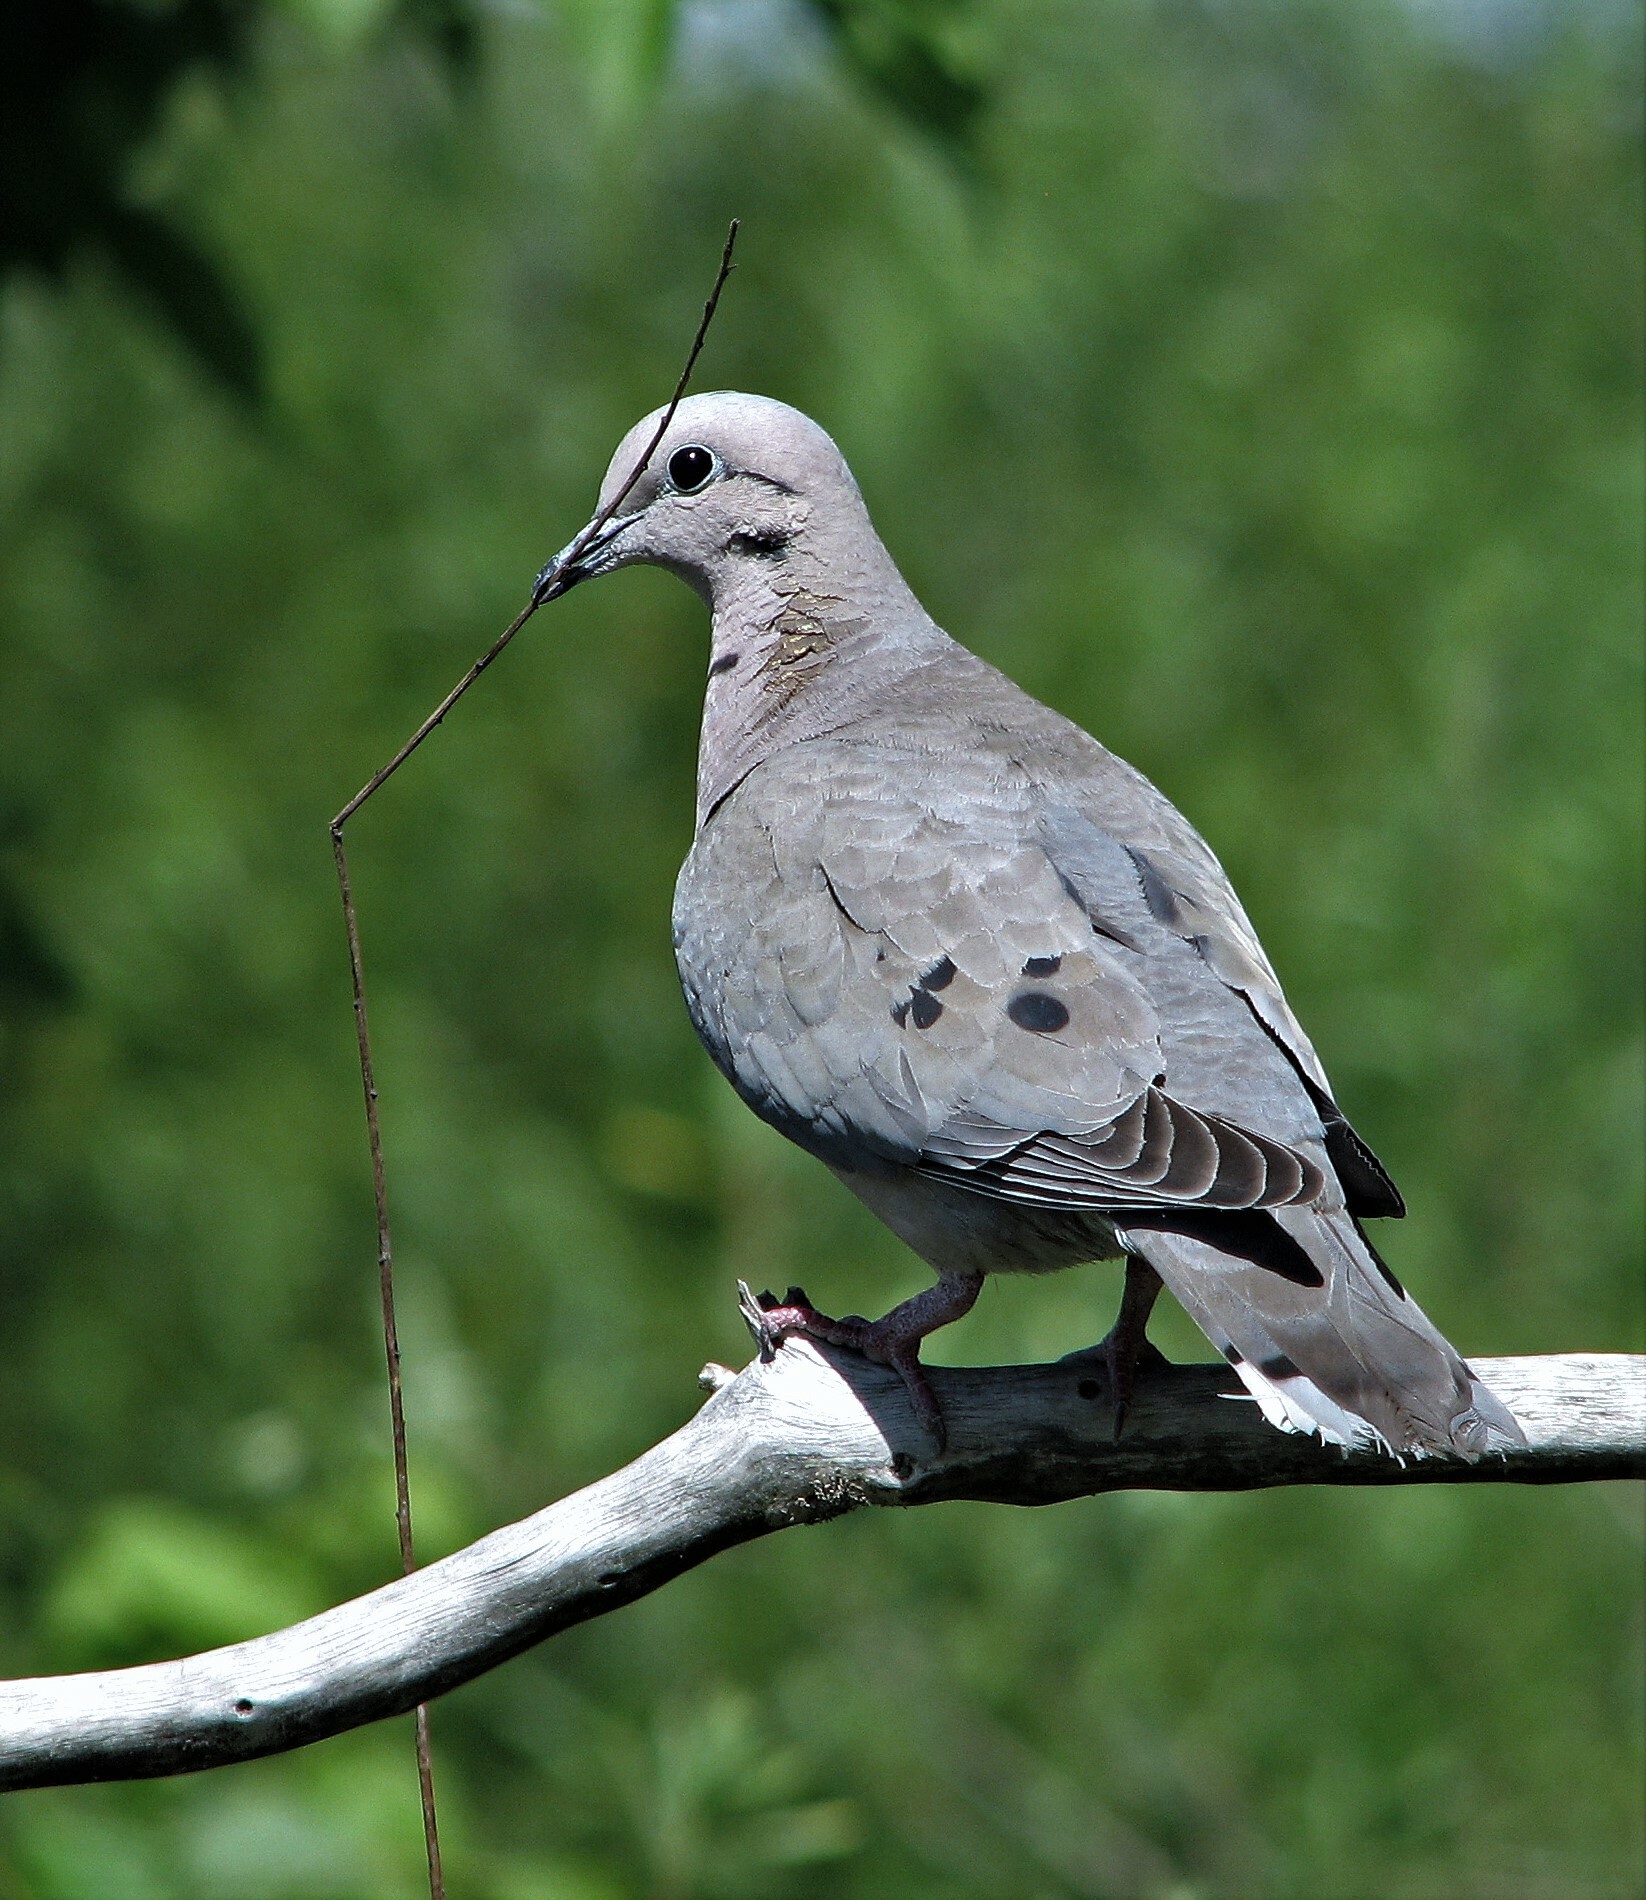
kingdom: Animalia
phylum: Chordata
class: Aves
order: Columbiformes
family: Columbidae
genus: Zenaida
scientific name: Zenaida auriculata
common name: Eared dove
